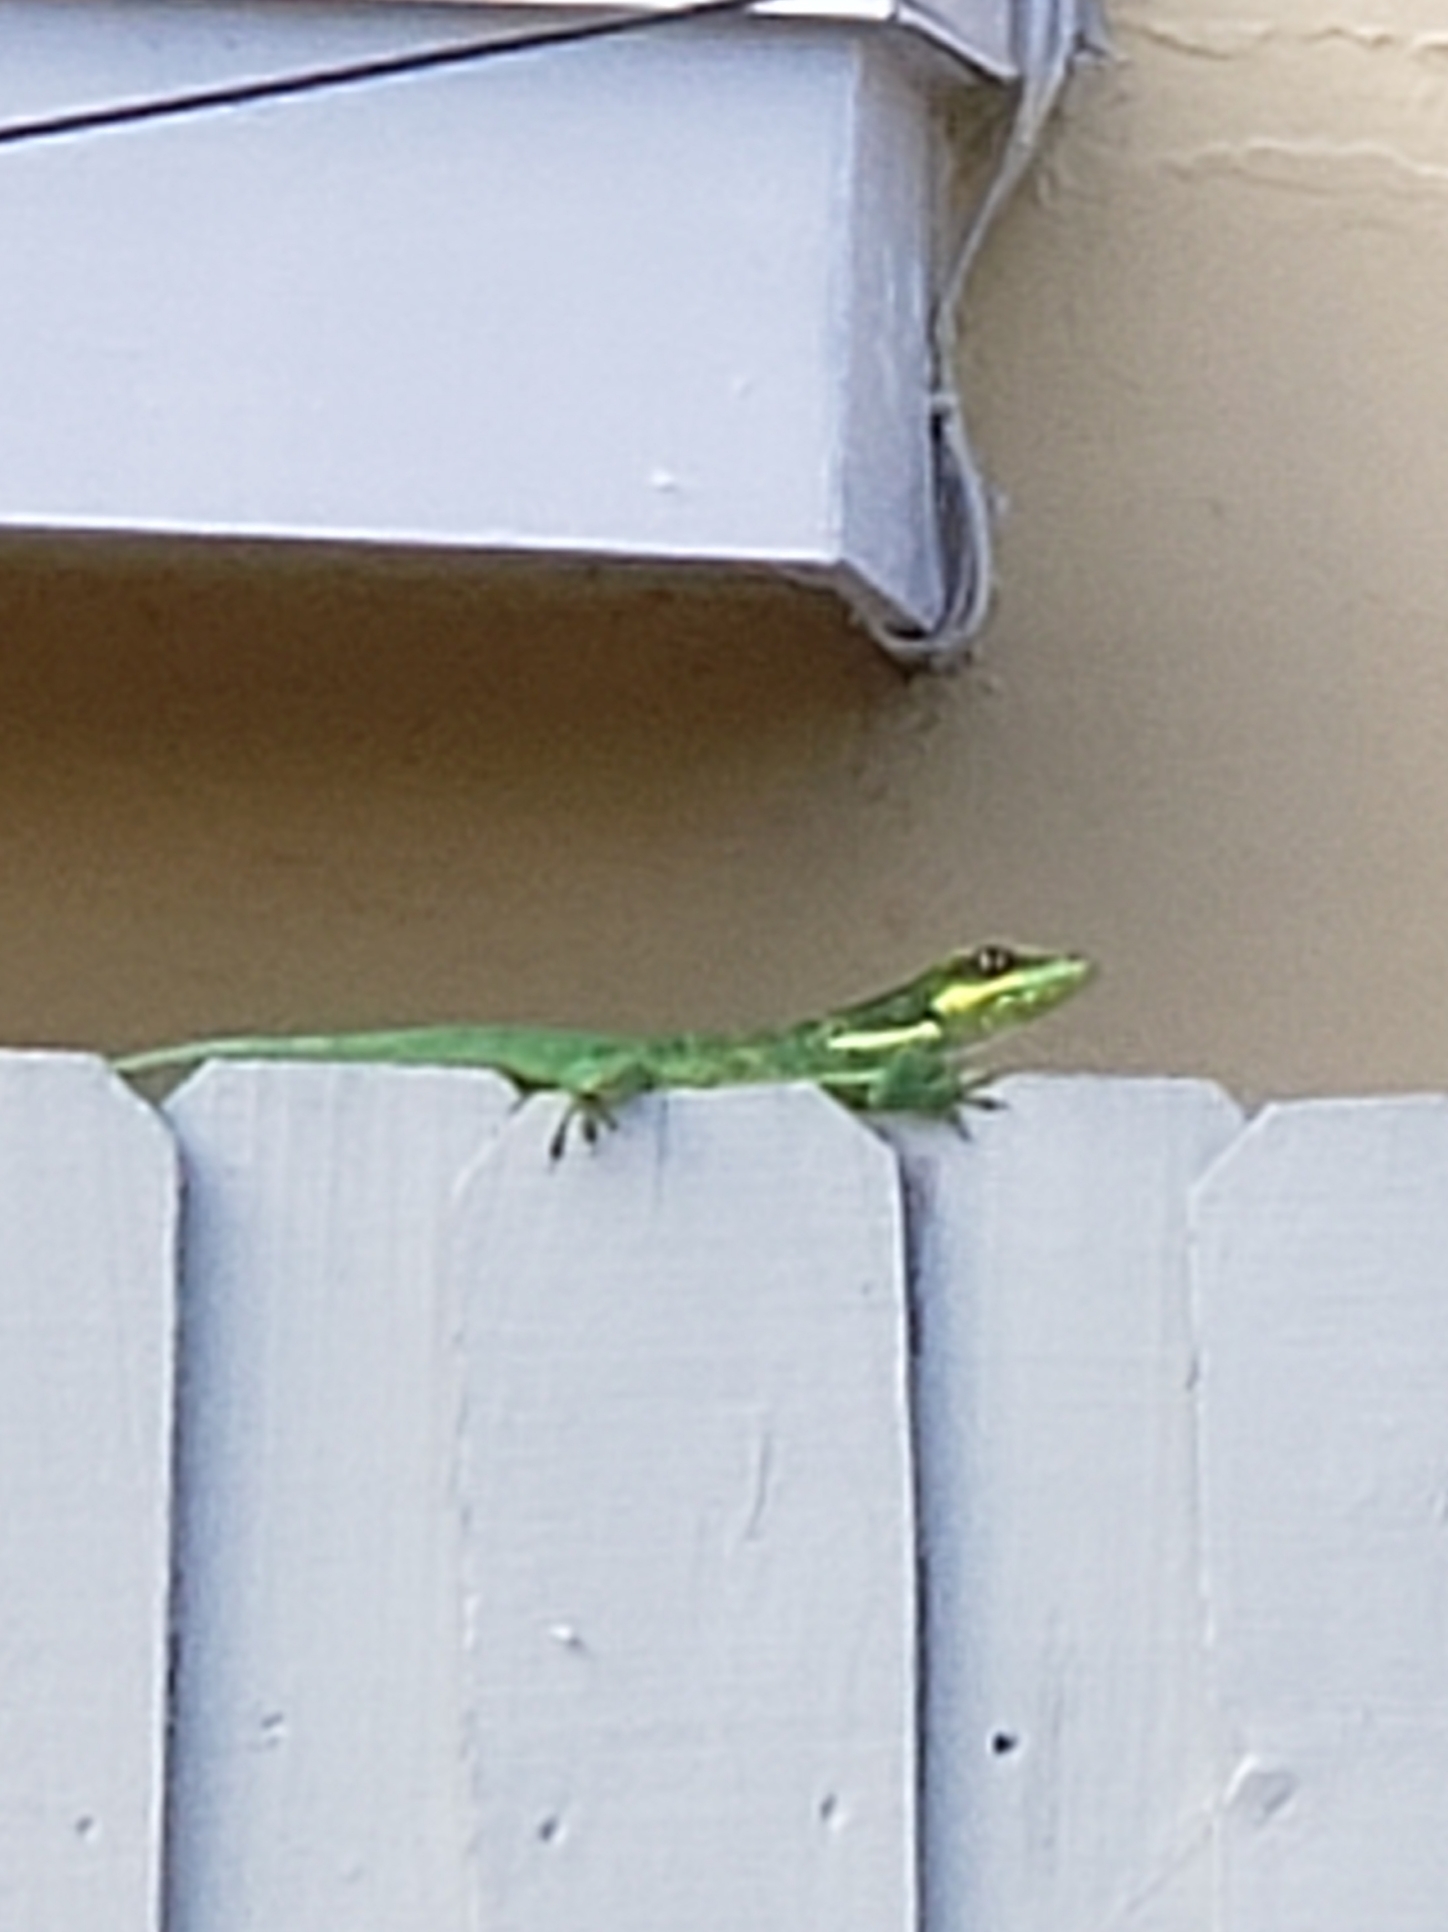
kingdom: Animalia
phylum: Chordata
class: Squamata
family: Dactyloidae
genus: Anolis
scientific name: Anolis equestris
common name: Knight anole
